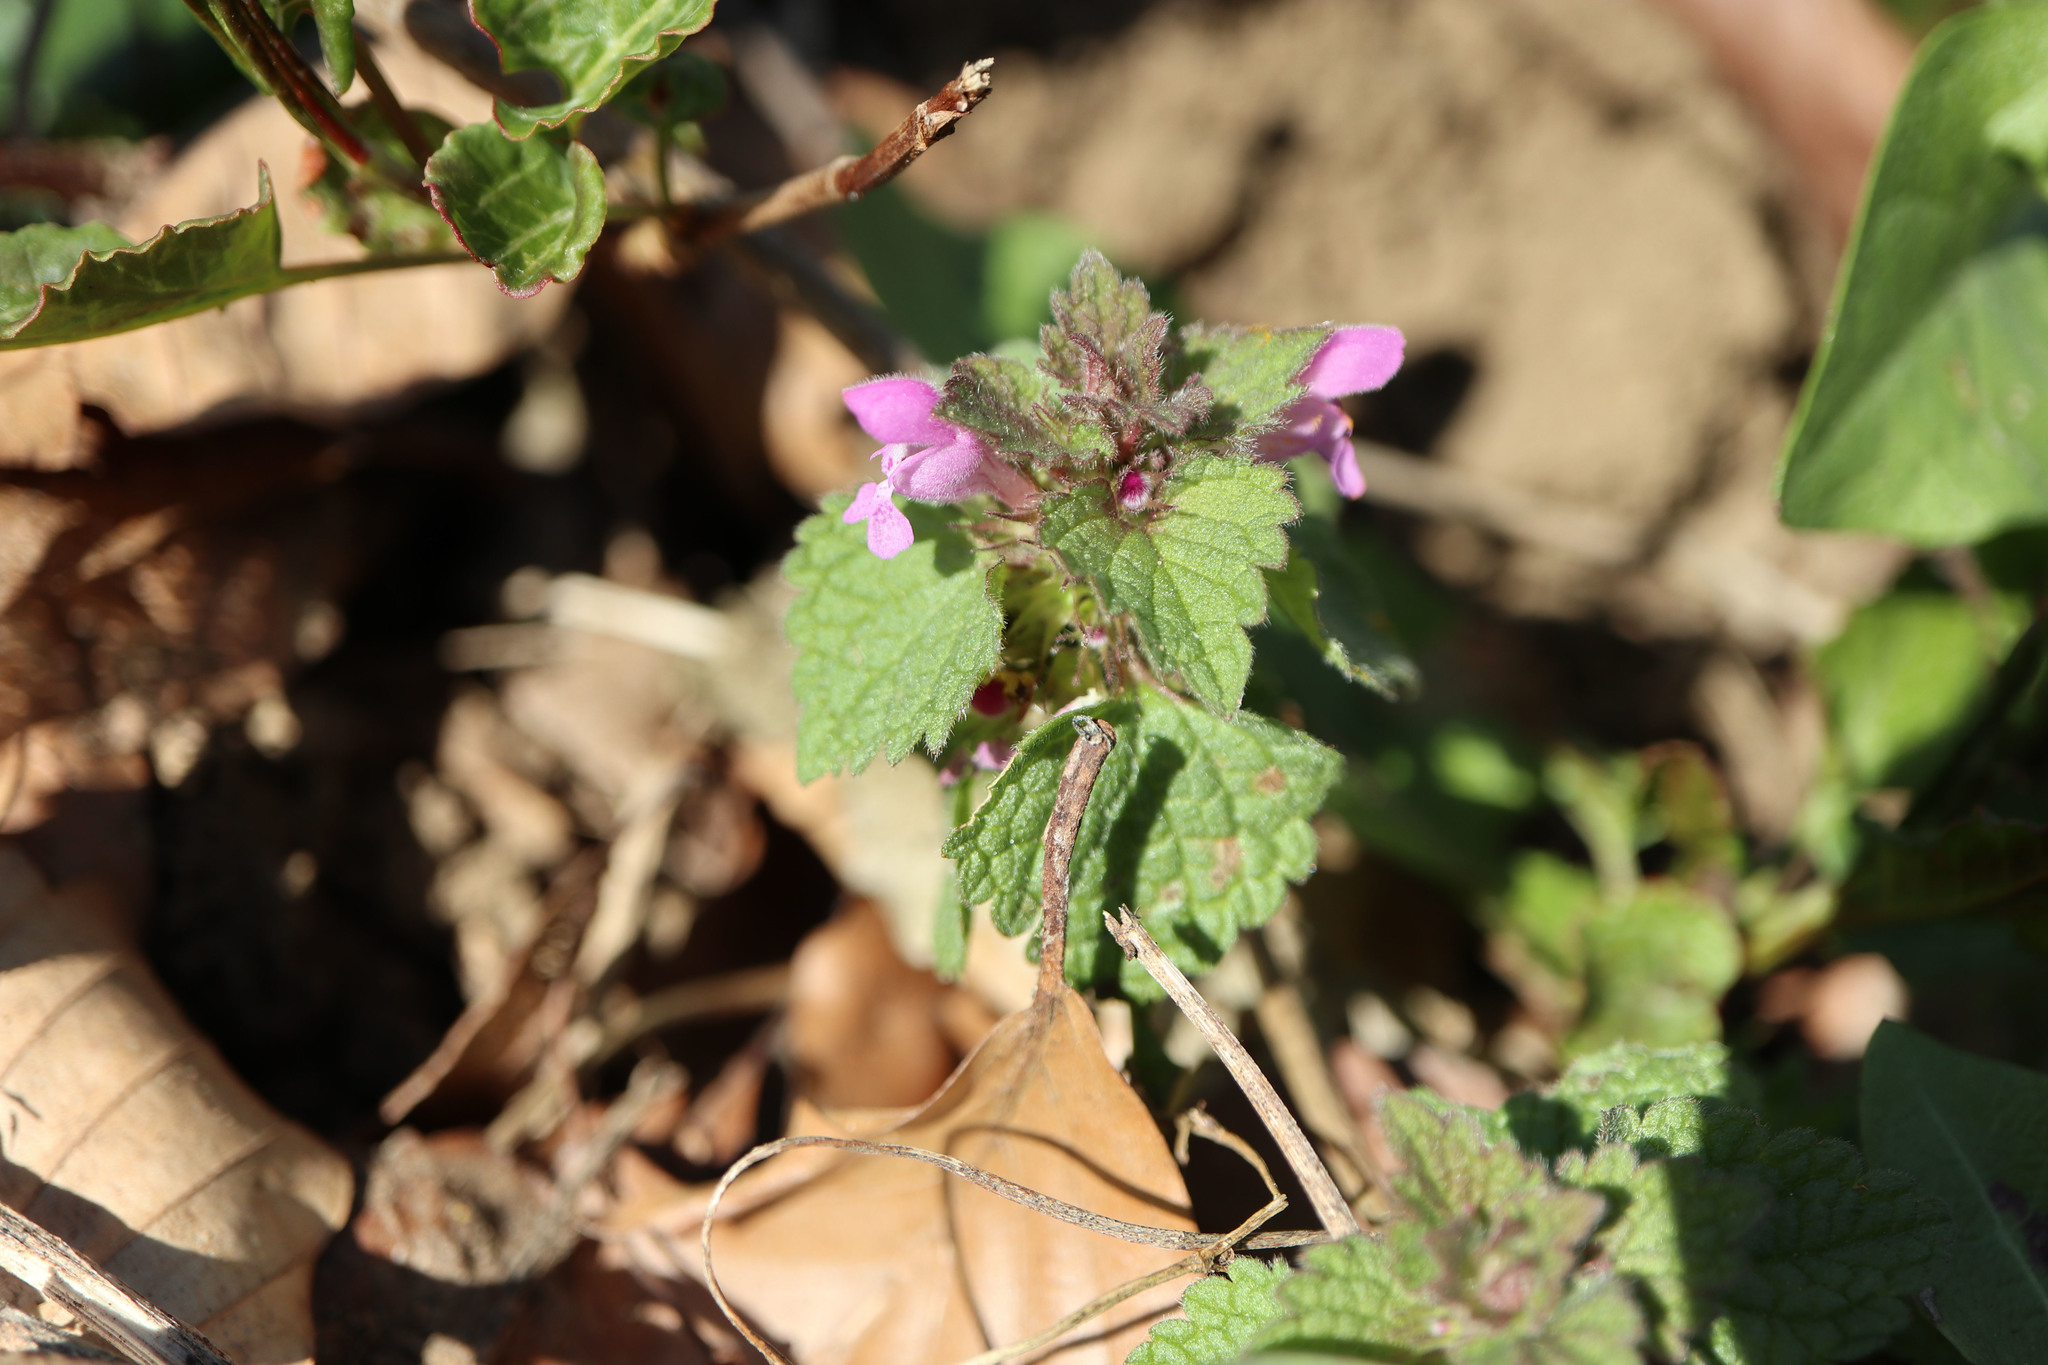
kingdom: Plantae
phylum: Tracheophyta
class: Magnoliopsida
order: Lamiales
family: Lamiaceae
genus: Lamium
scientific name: Lamium purpureum
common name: Red dead-nettle
